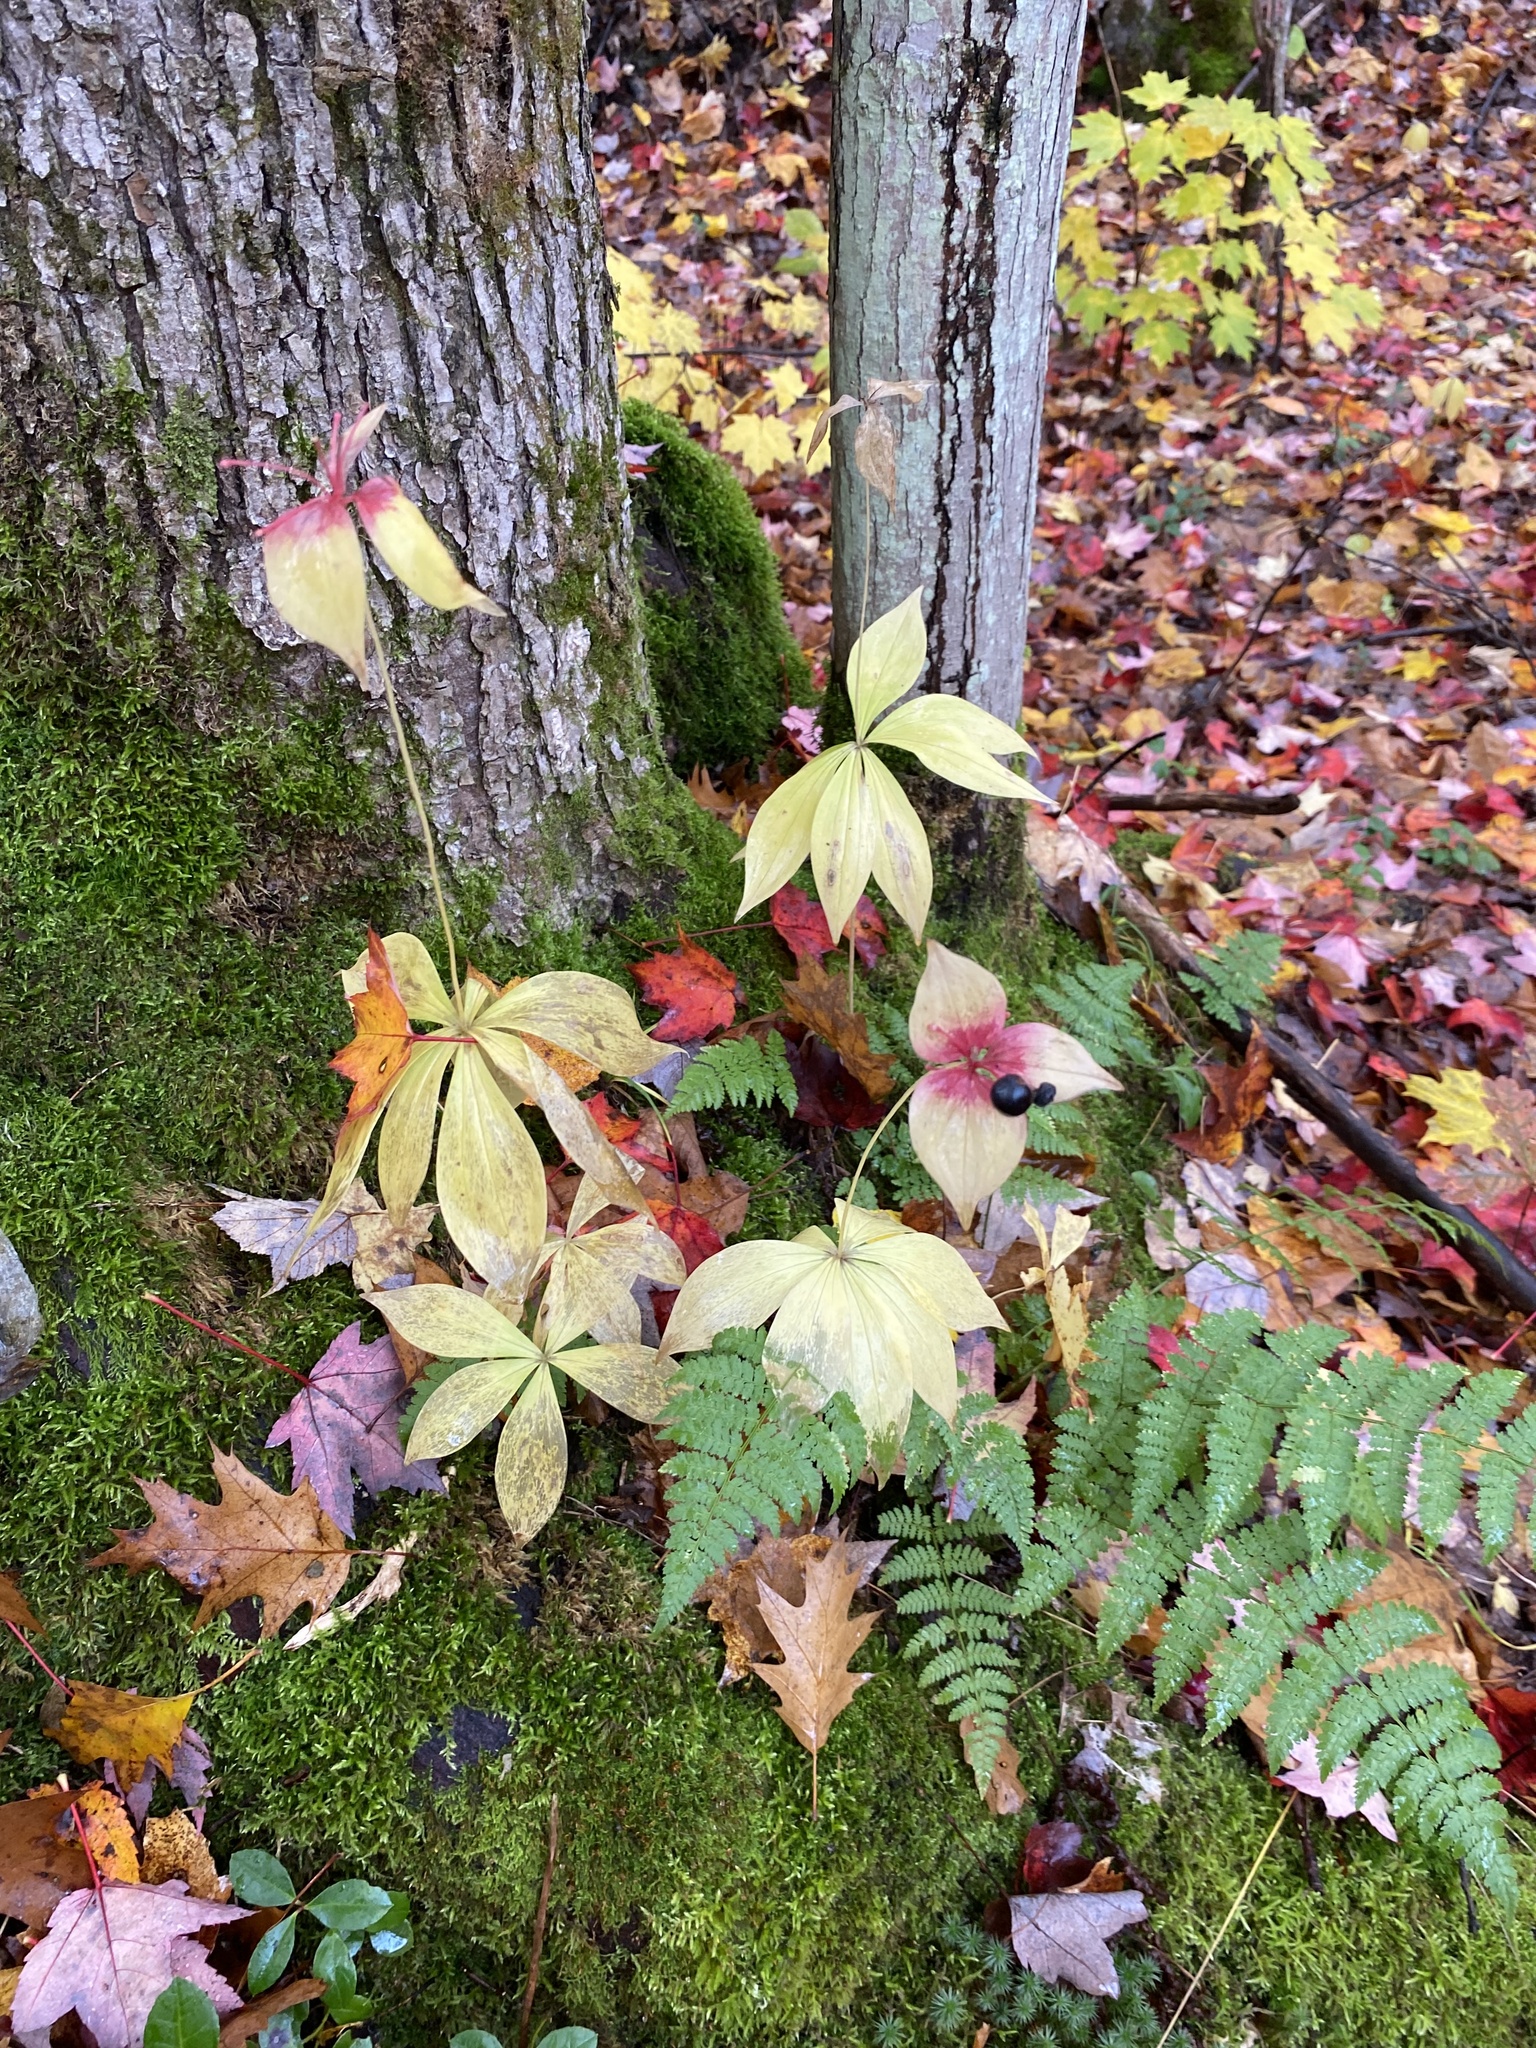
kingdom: Plantae
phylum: Tracheophyta
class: Liliopsida
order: Liliales
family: Liliaceae
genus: Medeola
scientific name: Medeola virginiana
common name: Indian cucumber-root
